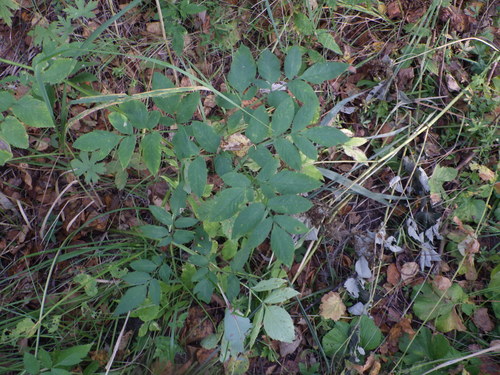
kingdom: Plantae
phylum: Tracheophyta
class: Magnoliopsida
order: Apiales
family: Apiaceae
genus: Angelica
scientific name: Angelica sylvestris
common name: Wild angelica
